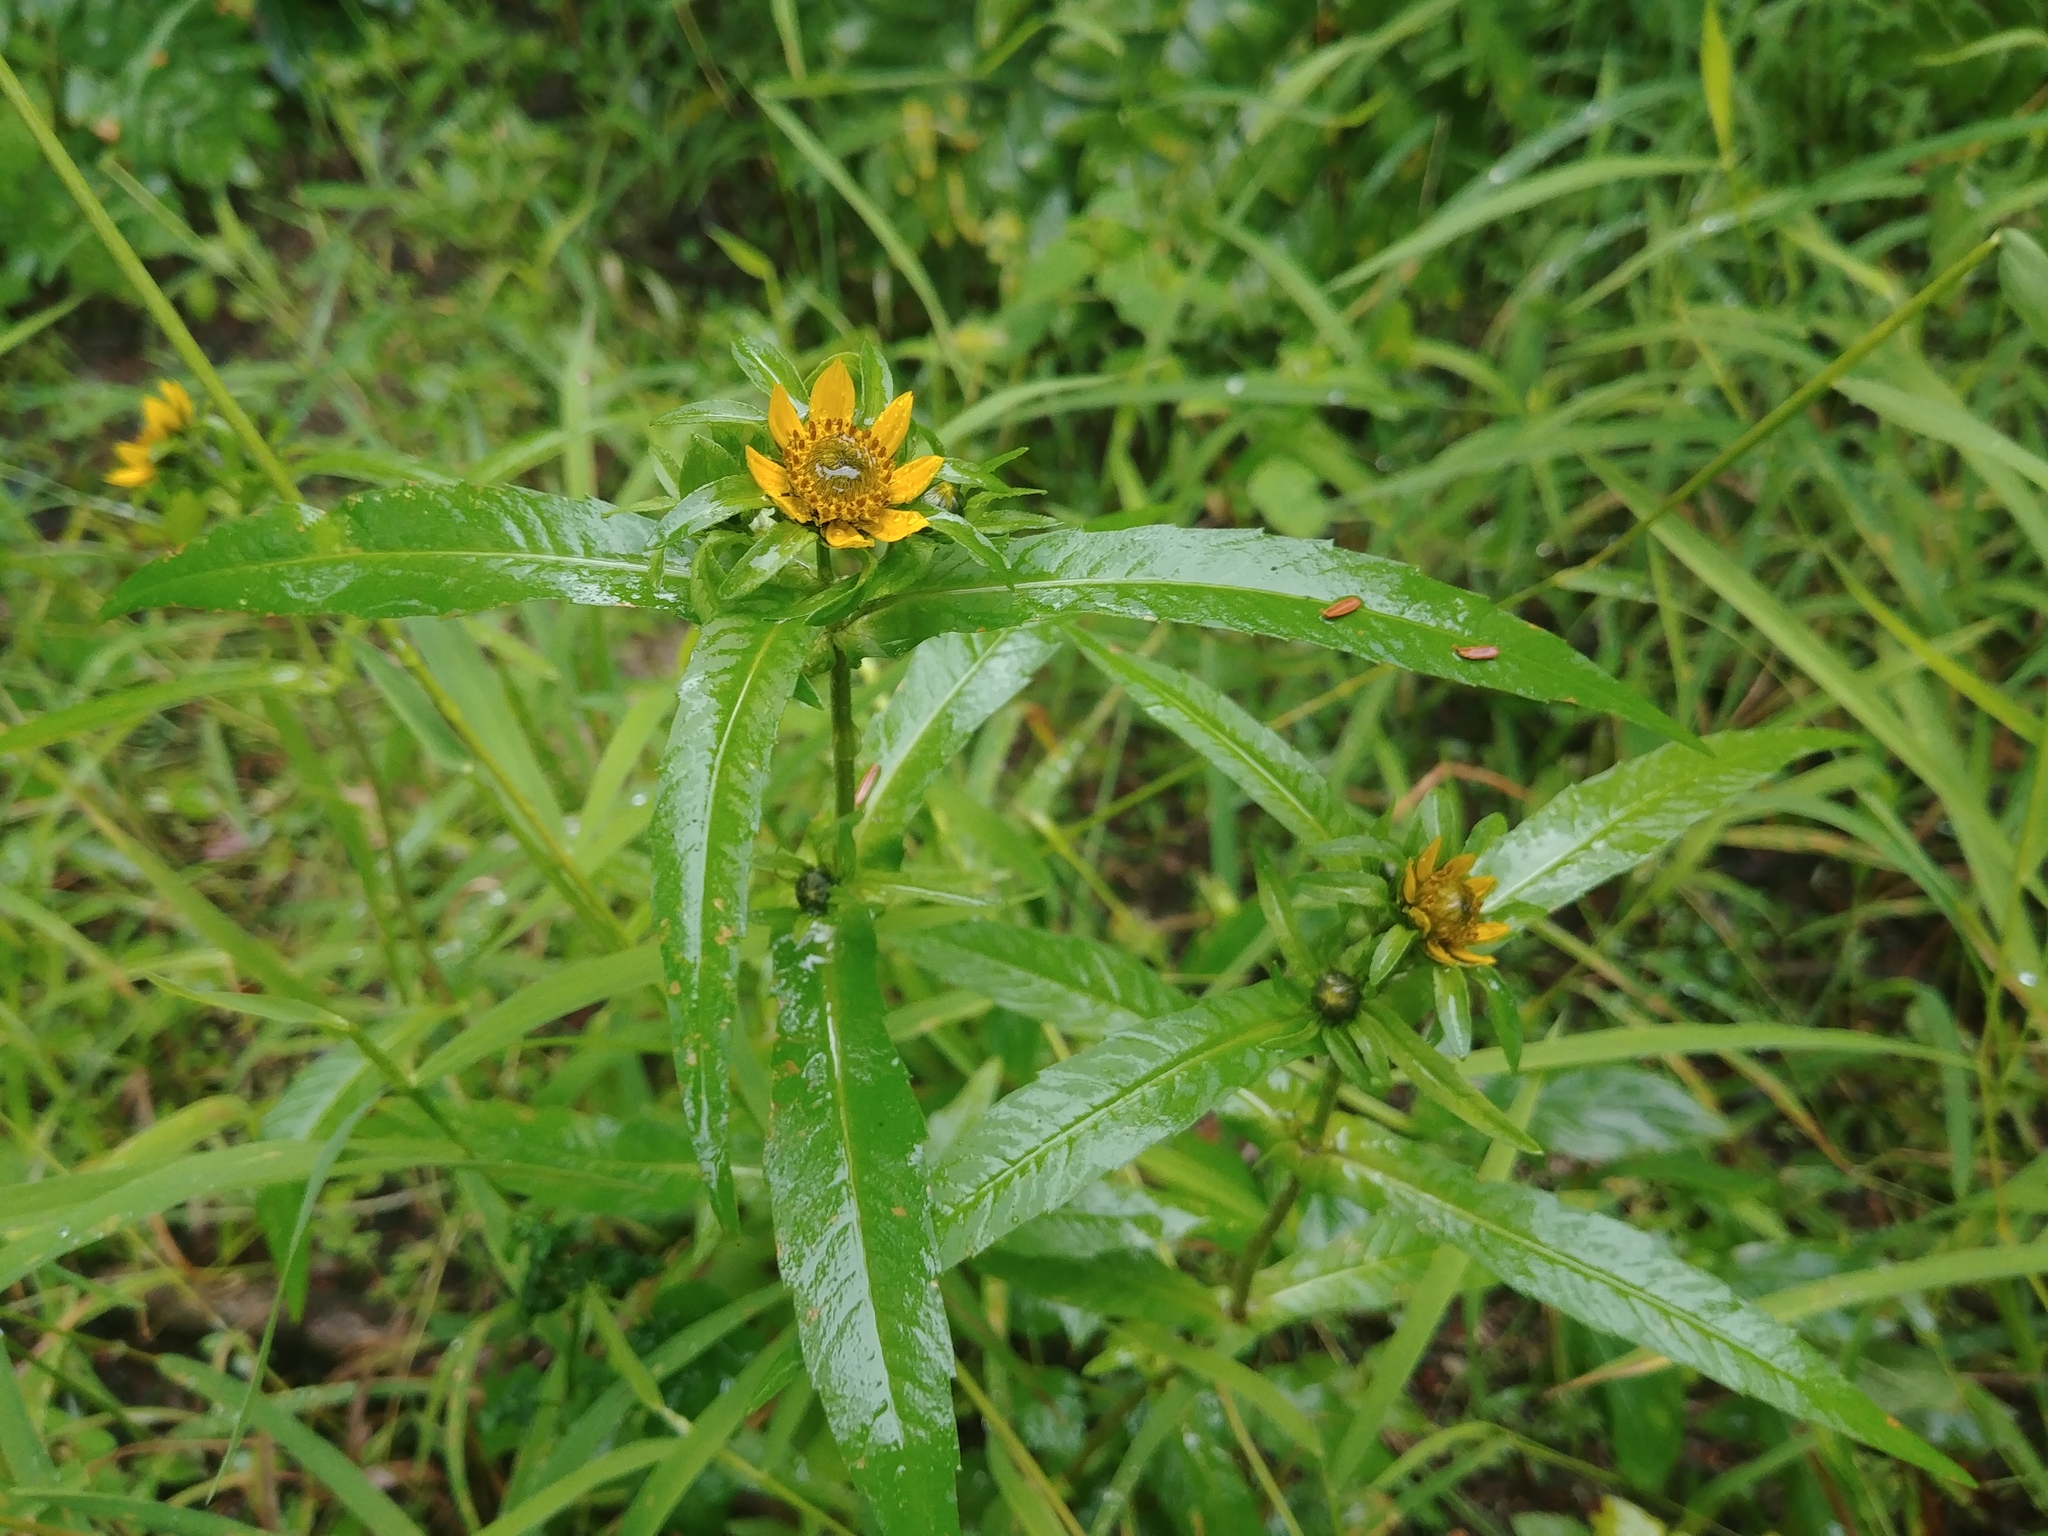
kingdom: Plantae
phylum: Tracheophyta
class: Magnoliopsida
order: Asterales
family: Asteraceae
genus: Bidens
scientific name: Bidens cernua
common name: Nodding bur-marigold
